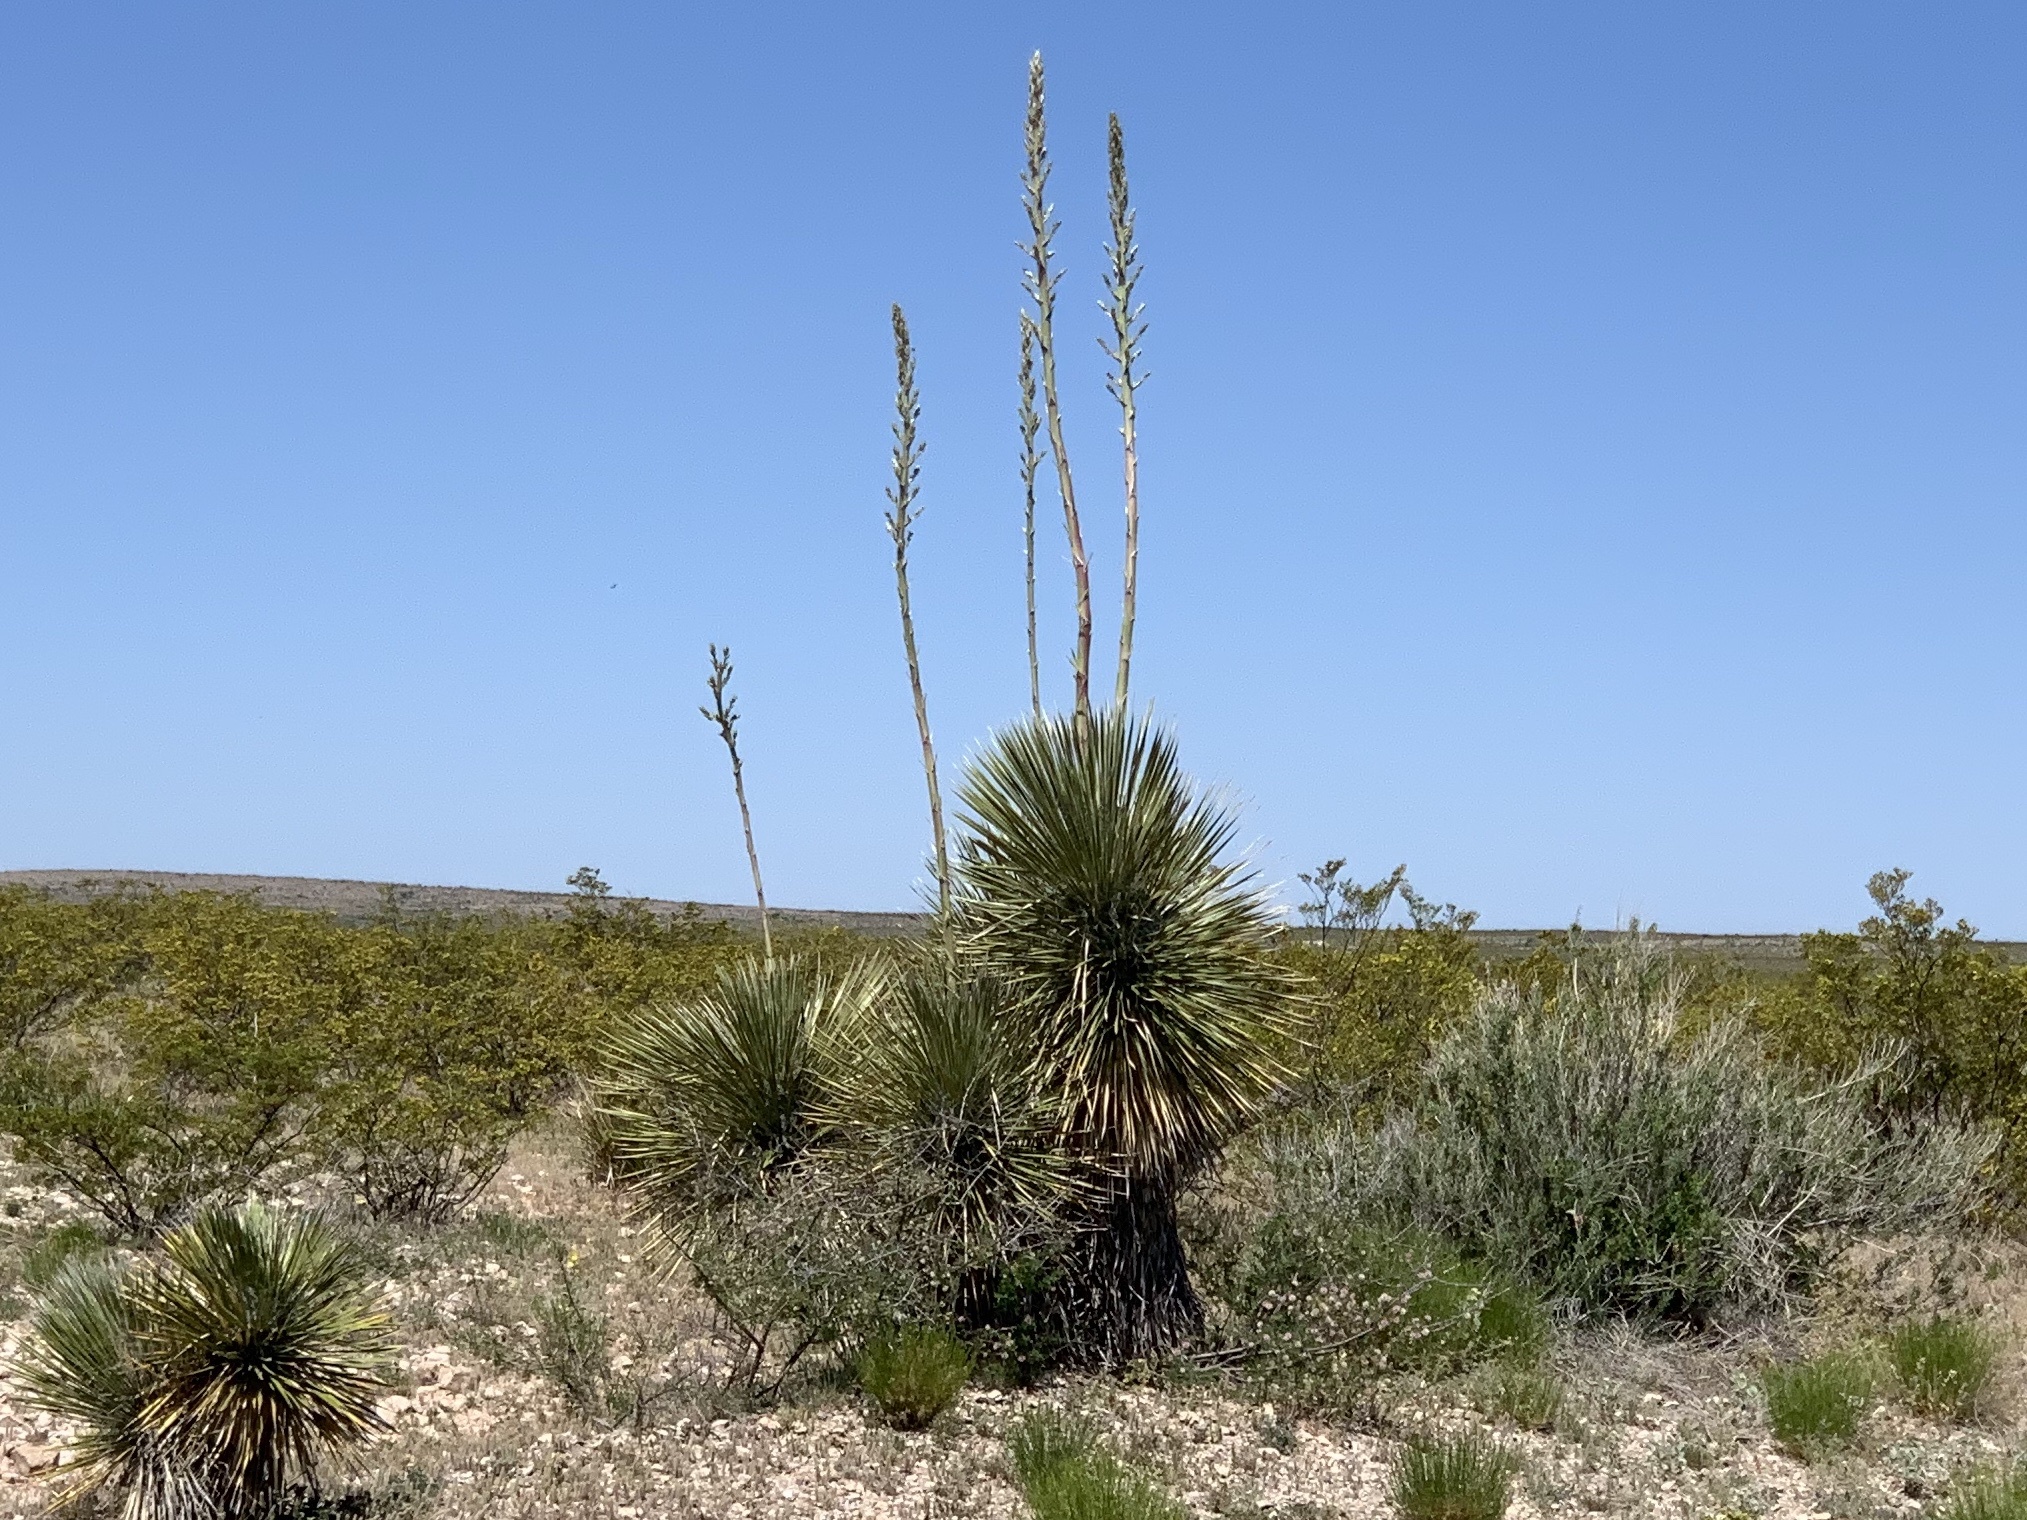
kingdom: Plantae
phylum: Tracheophyta
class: Liliopsida
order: Asparagales
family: Asparagaceae
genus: Yucca
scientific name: Yucca elata
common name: Palmella
